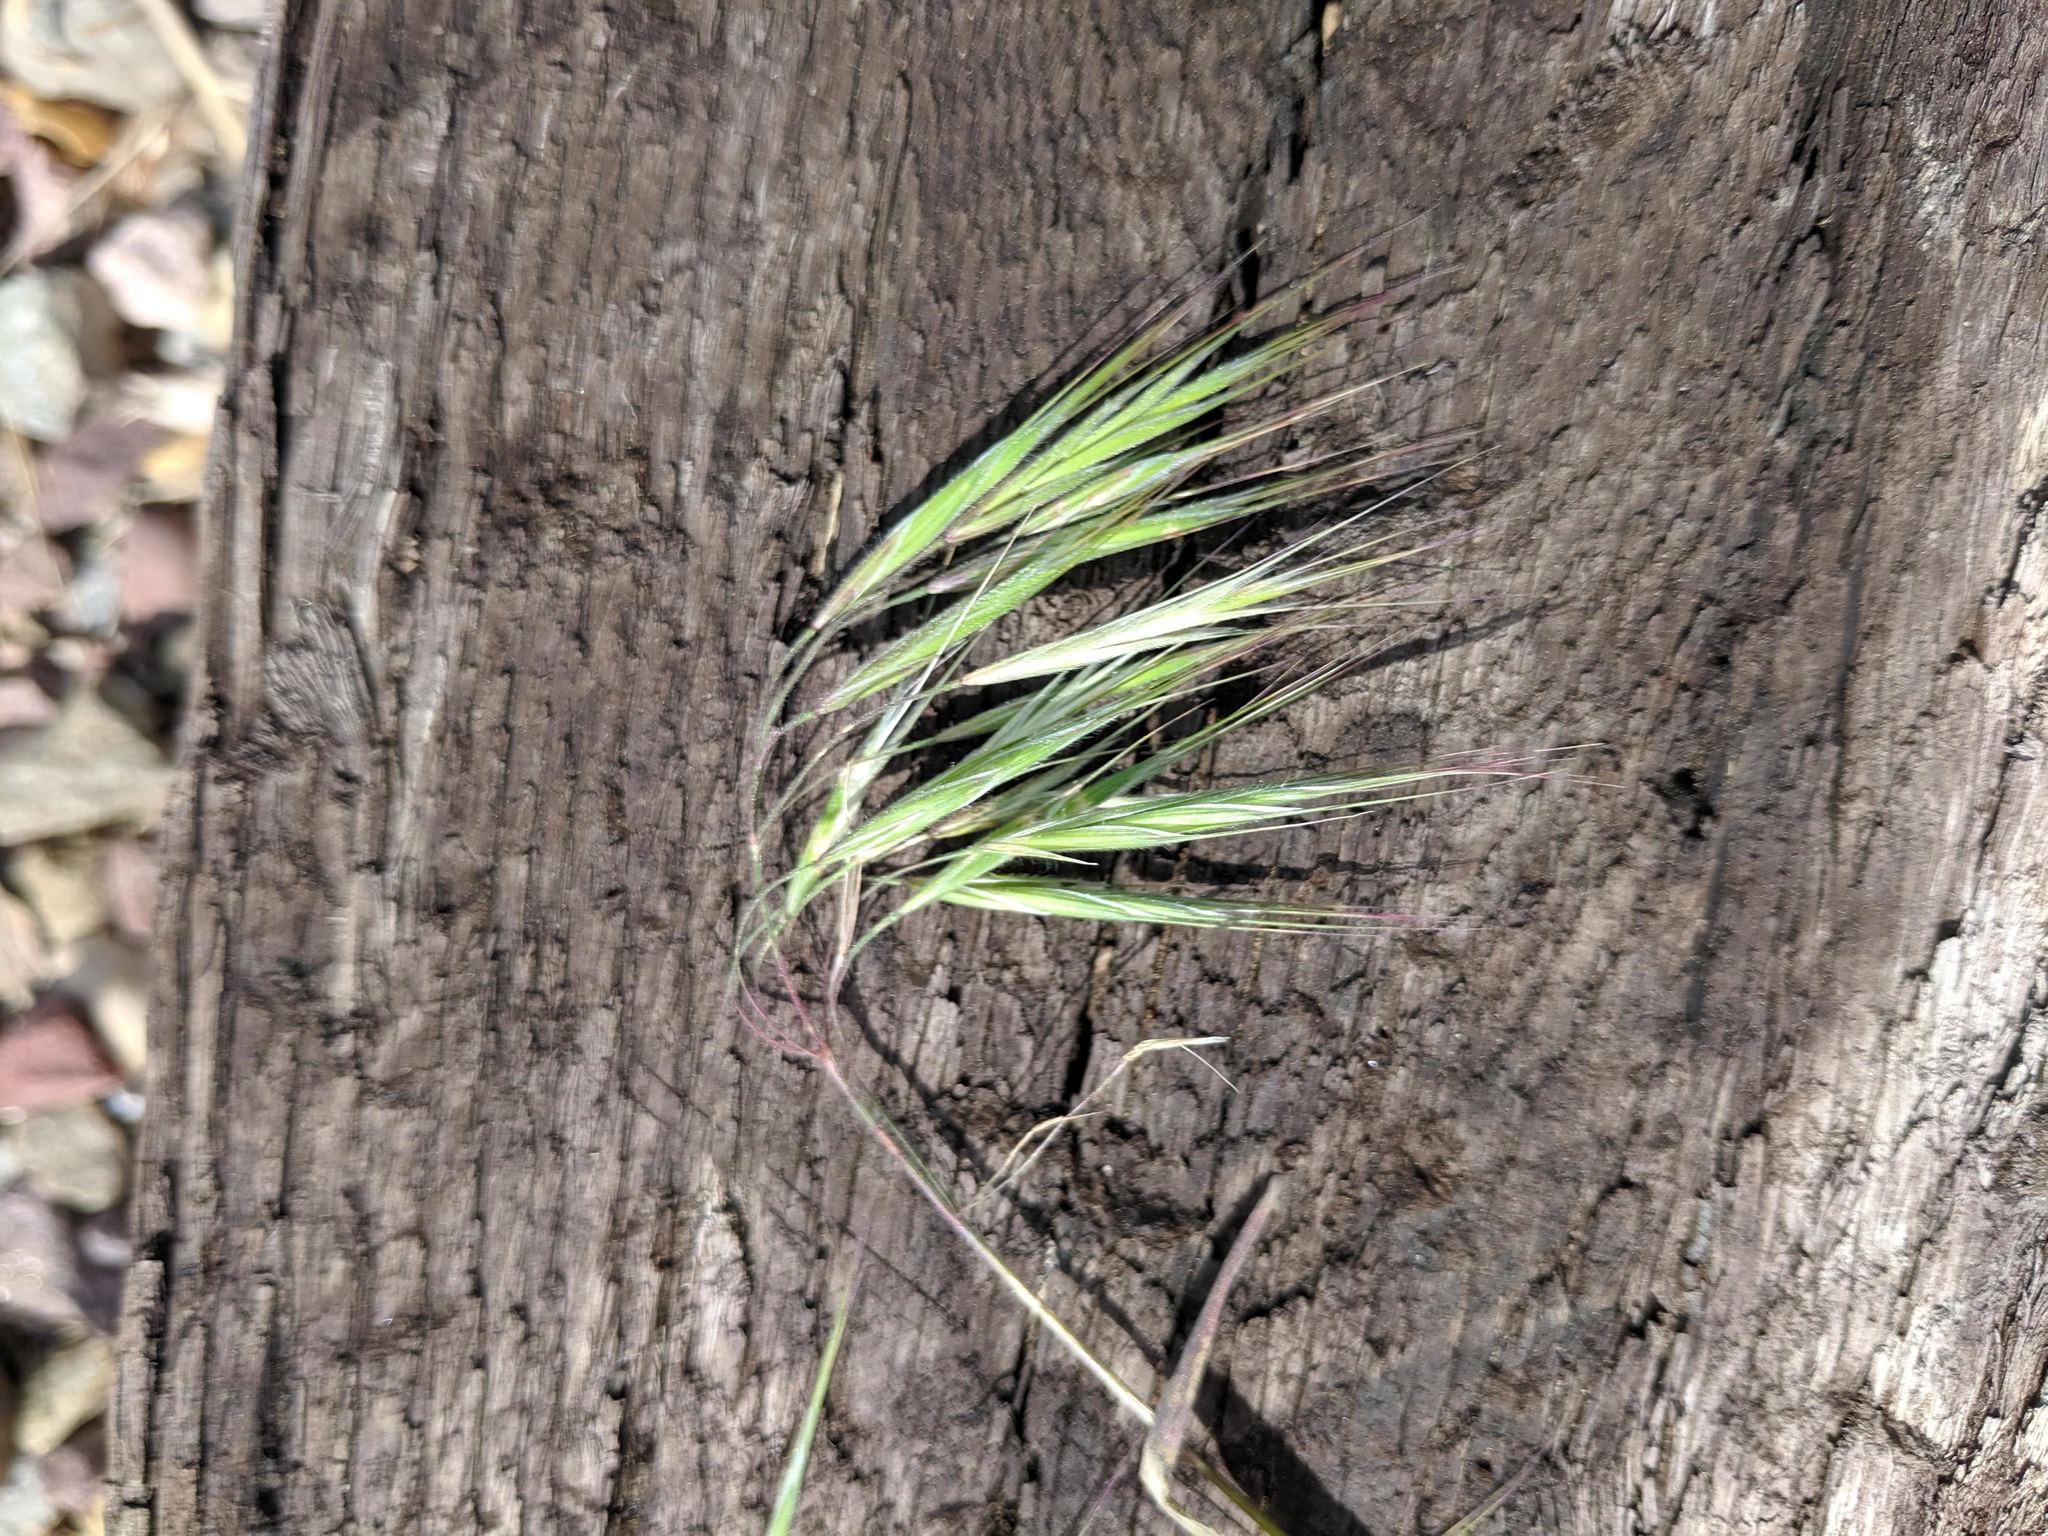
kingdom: Plantae
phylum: Tracheophyta
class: Liliopsida
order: Poales
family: Poaceae
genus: Bromus
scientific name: Bromus tectorum
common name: Cheatgrass
